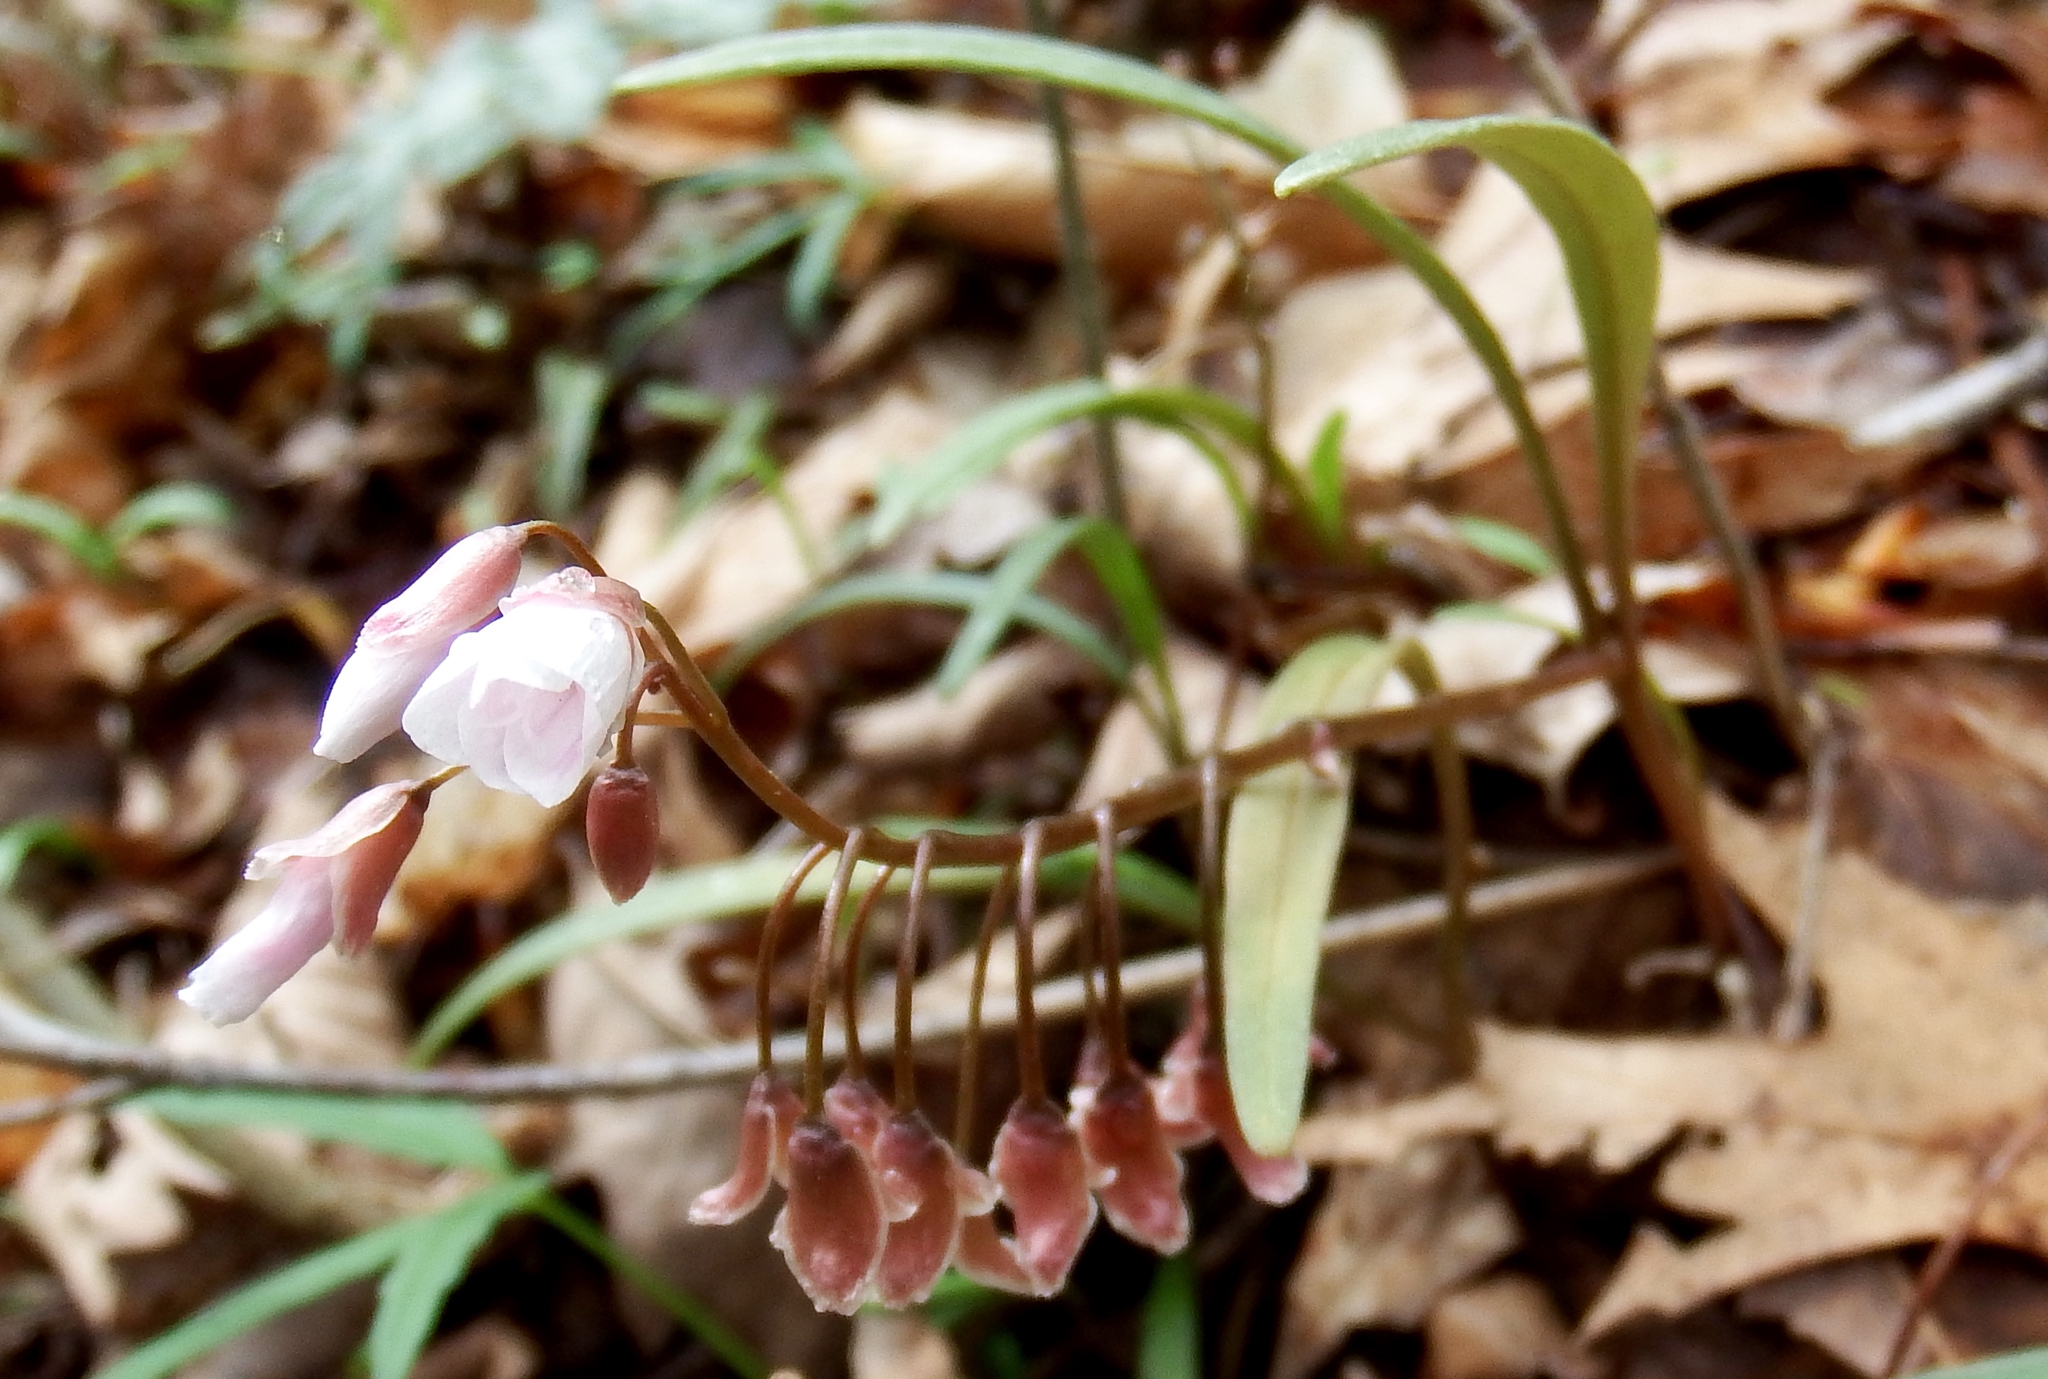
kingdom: Plantae
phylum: Tracheophyta
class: Magnoliopsida
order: Caryophyllales
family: Montiaceae
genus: Claytonia
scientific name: Claytonia virginica
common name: Virginia springbeauty
